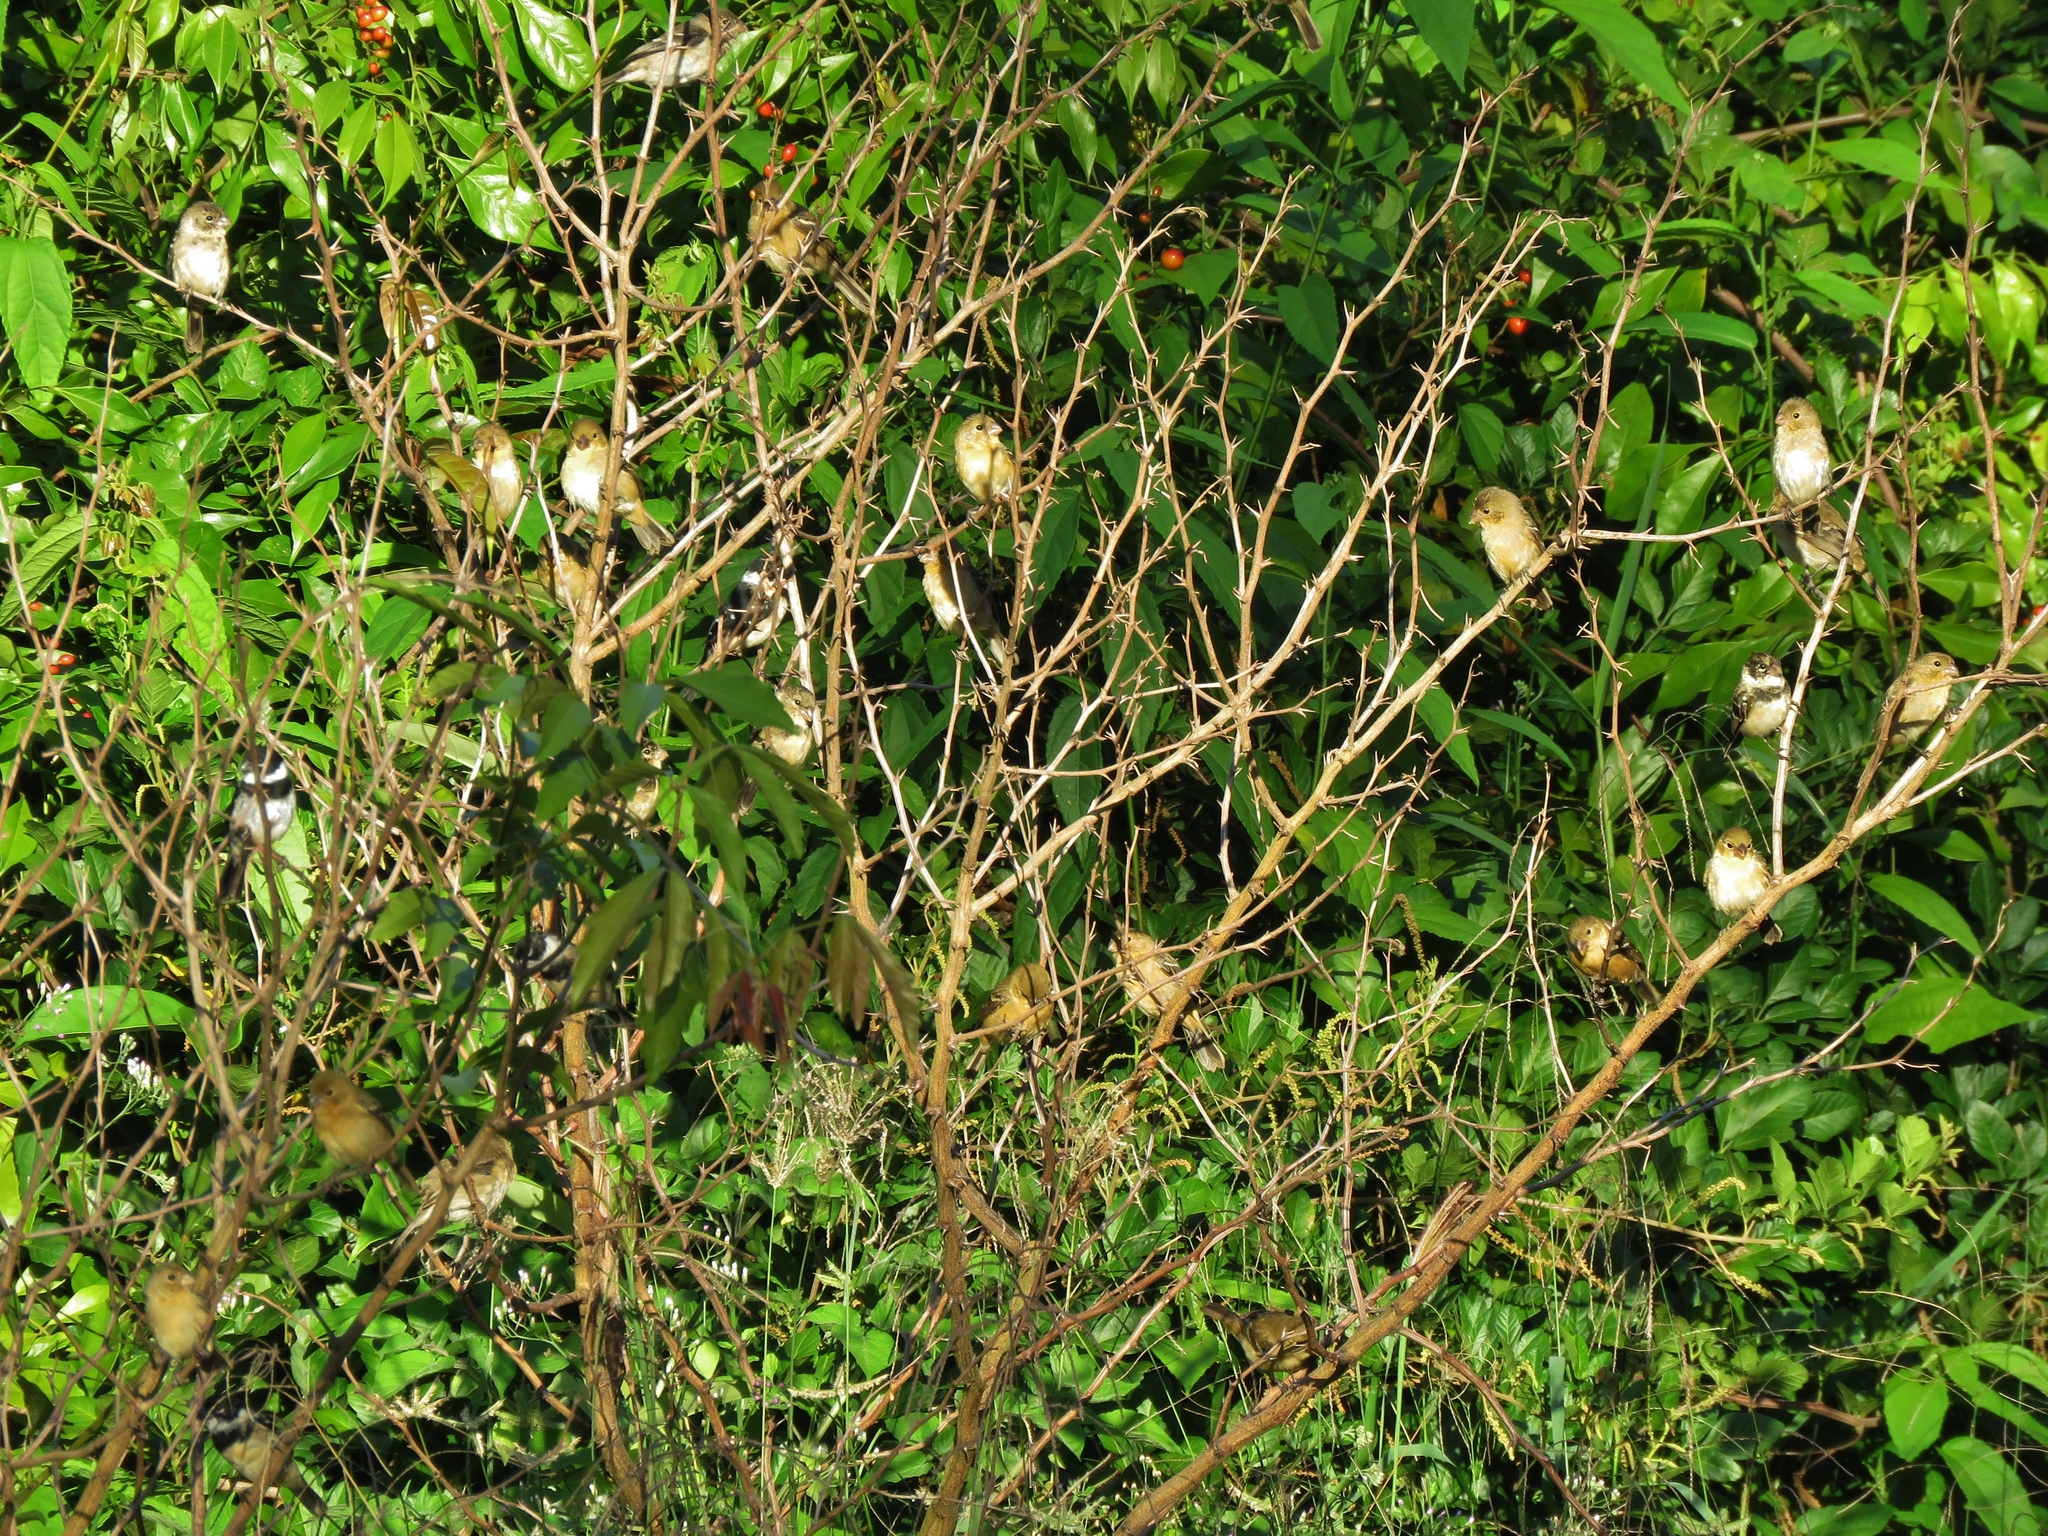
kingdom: Animalia
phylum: Chordata
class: Aves
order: Passeriformes
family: Thraupidae
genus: Sporophila
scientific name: Sporophila morelleti
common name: Morelet's seedeater
